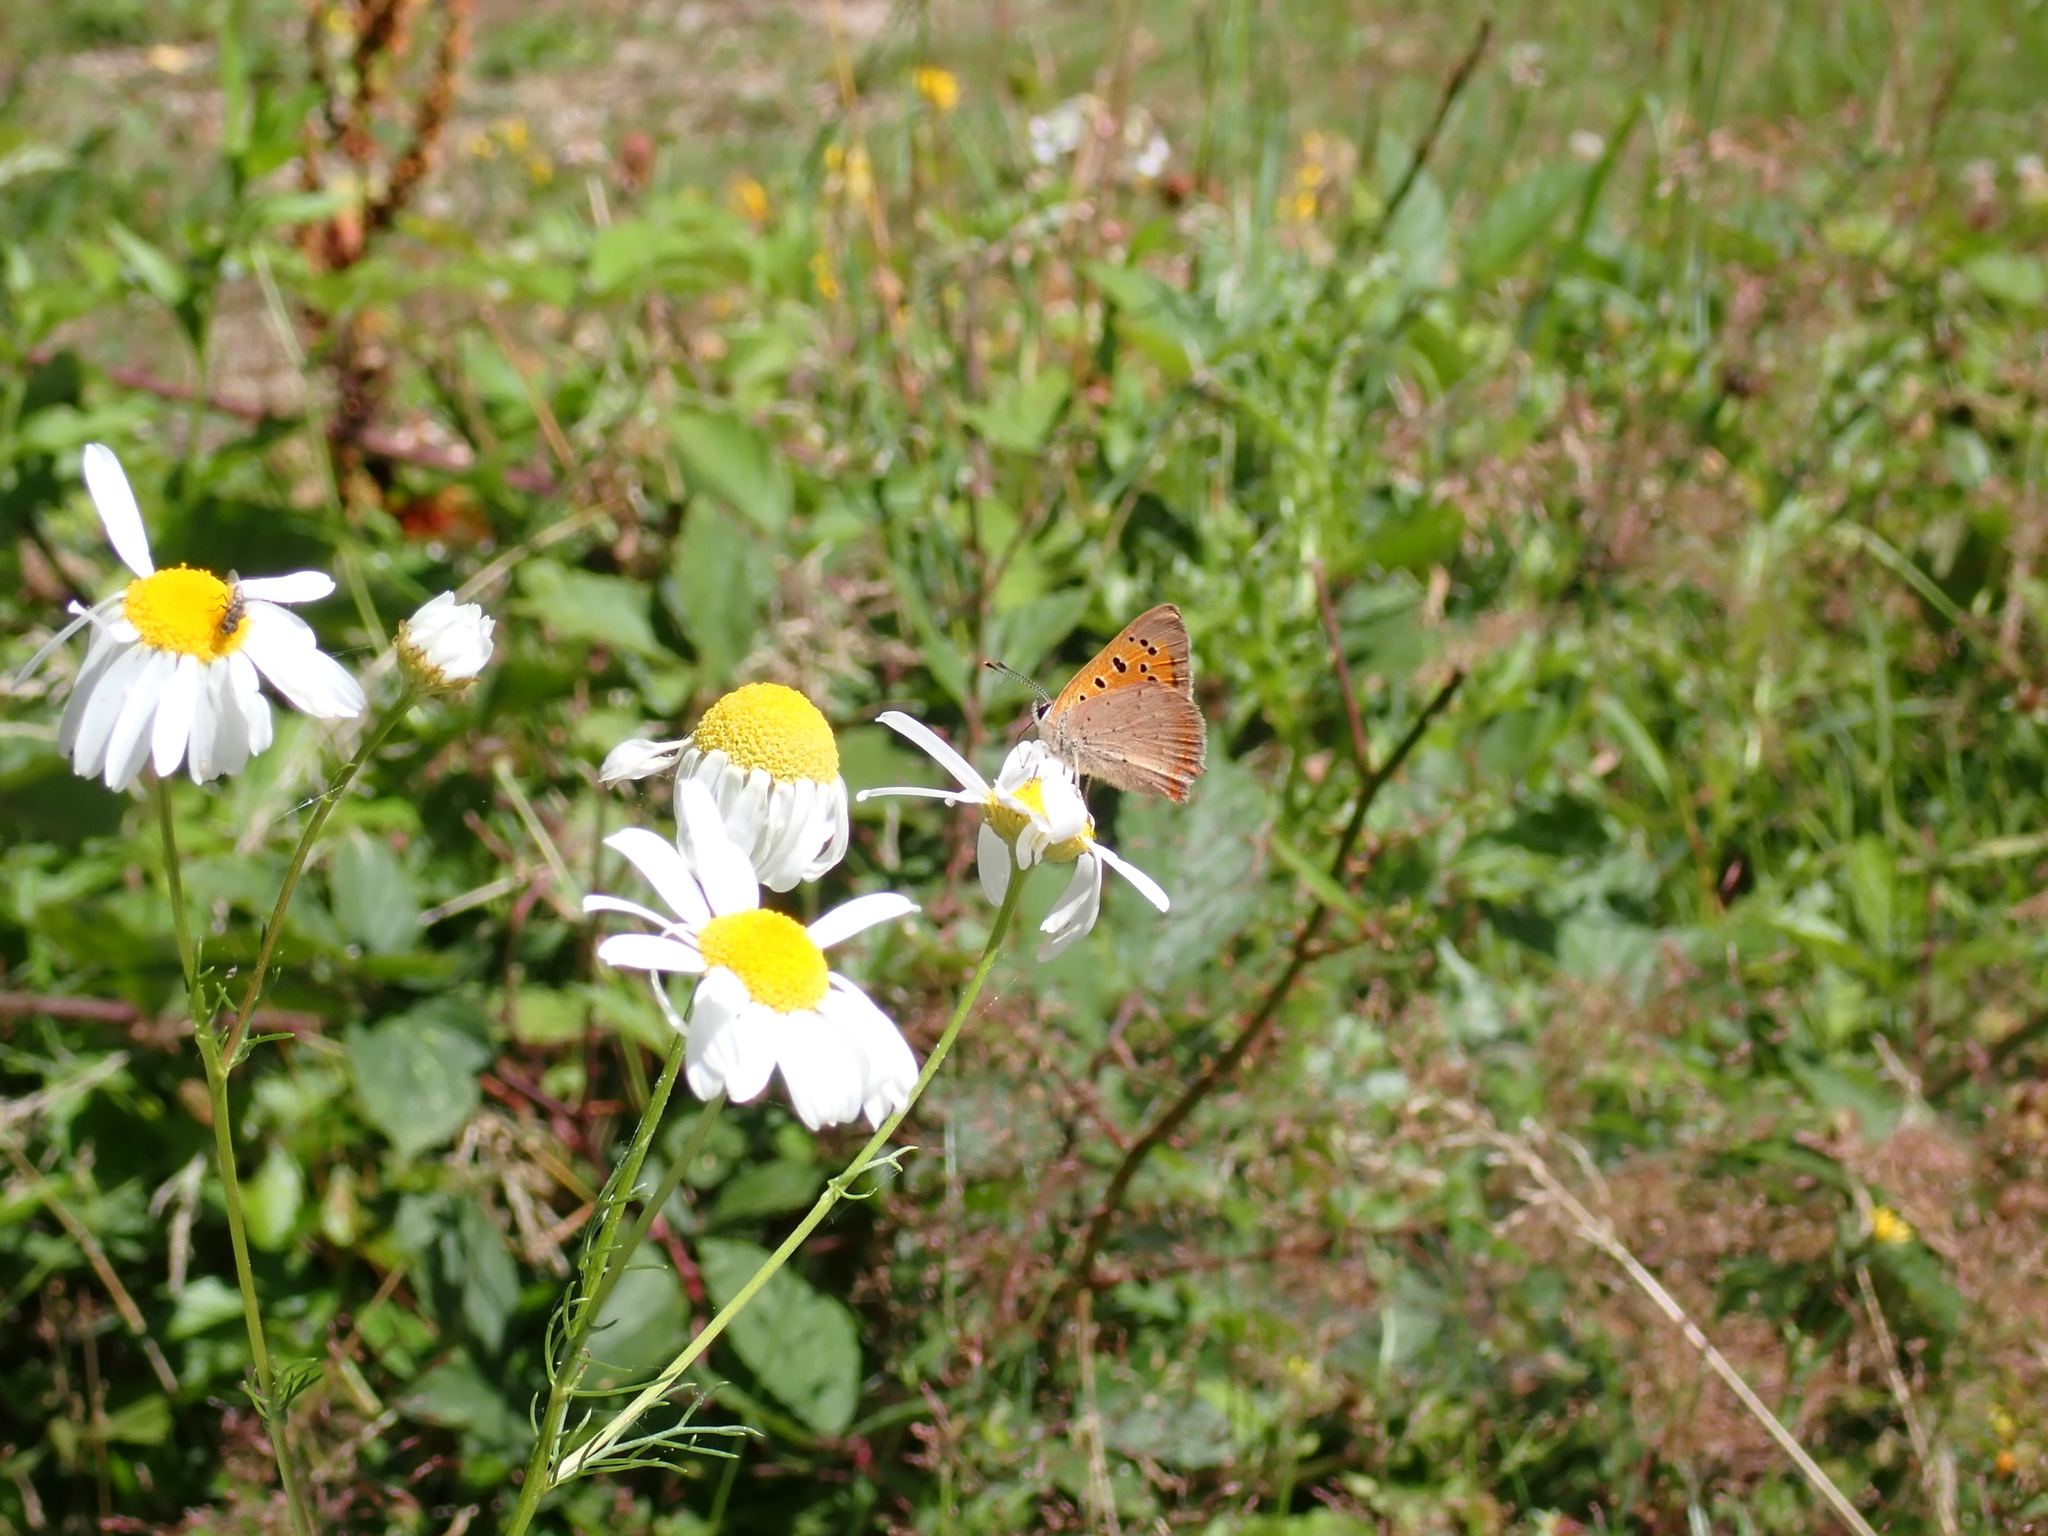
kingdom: Animalia
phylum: Arthropoda
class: Insecta
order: Lepidoptera
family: Lycaenidae
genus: Lycaena
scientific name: Lycaena phlaeas
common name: Small copper
